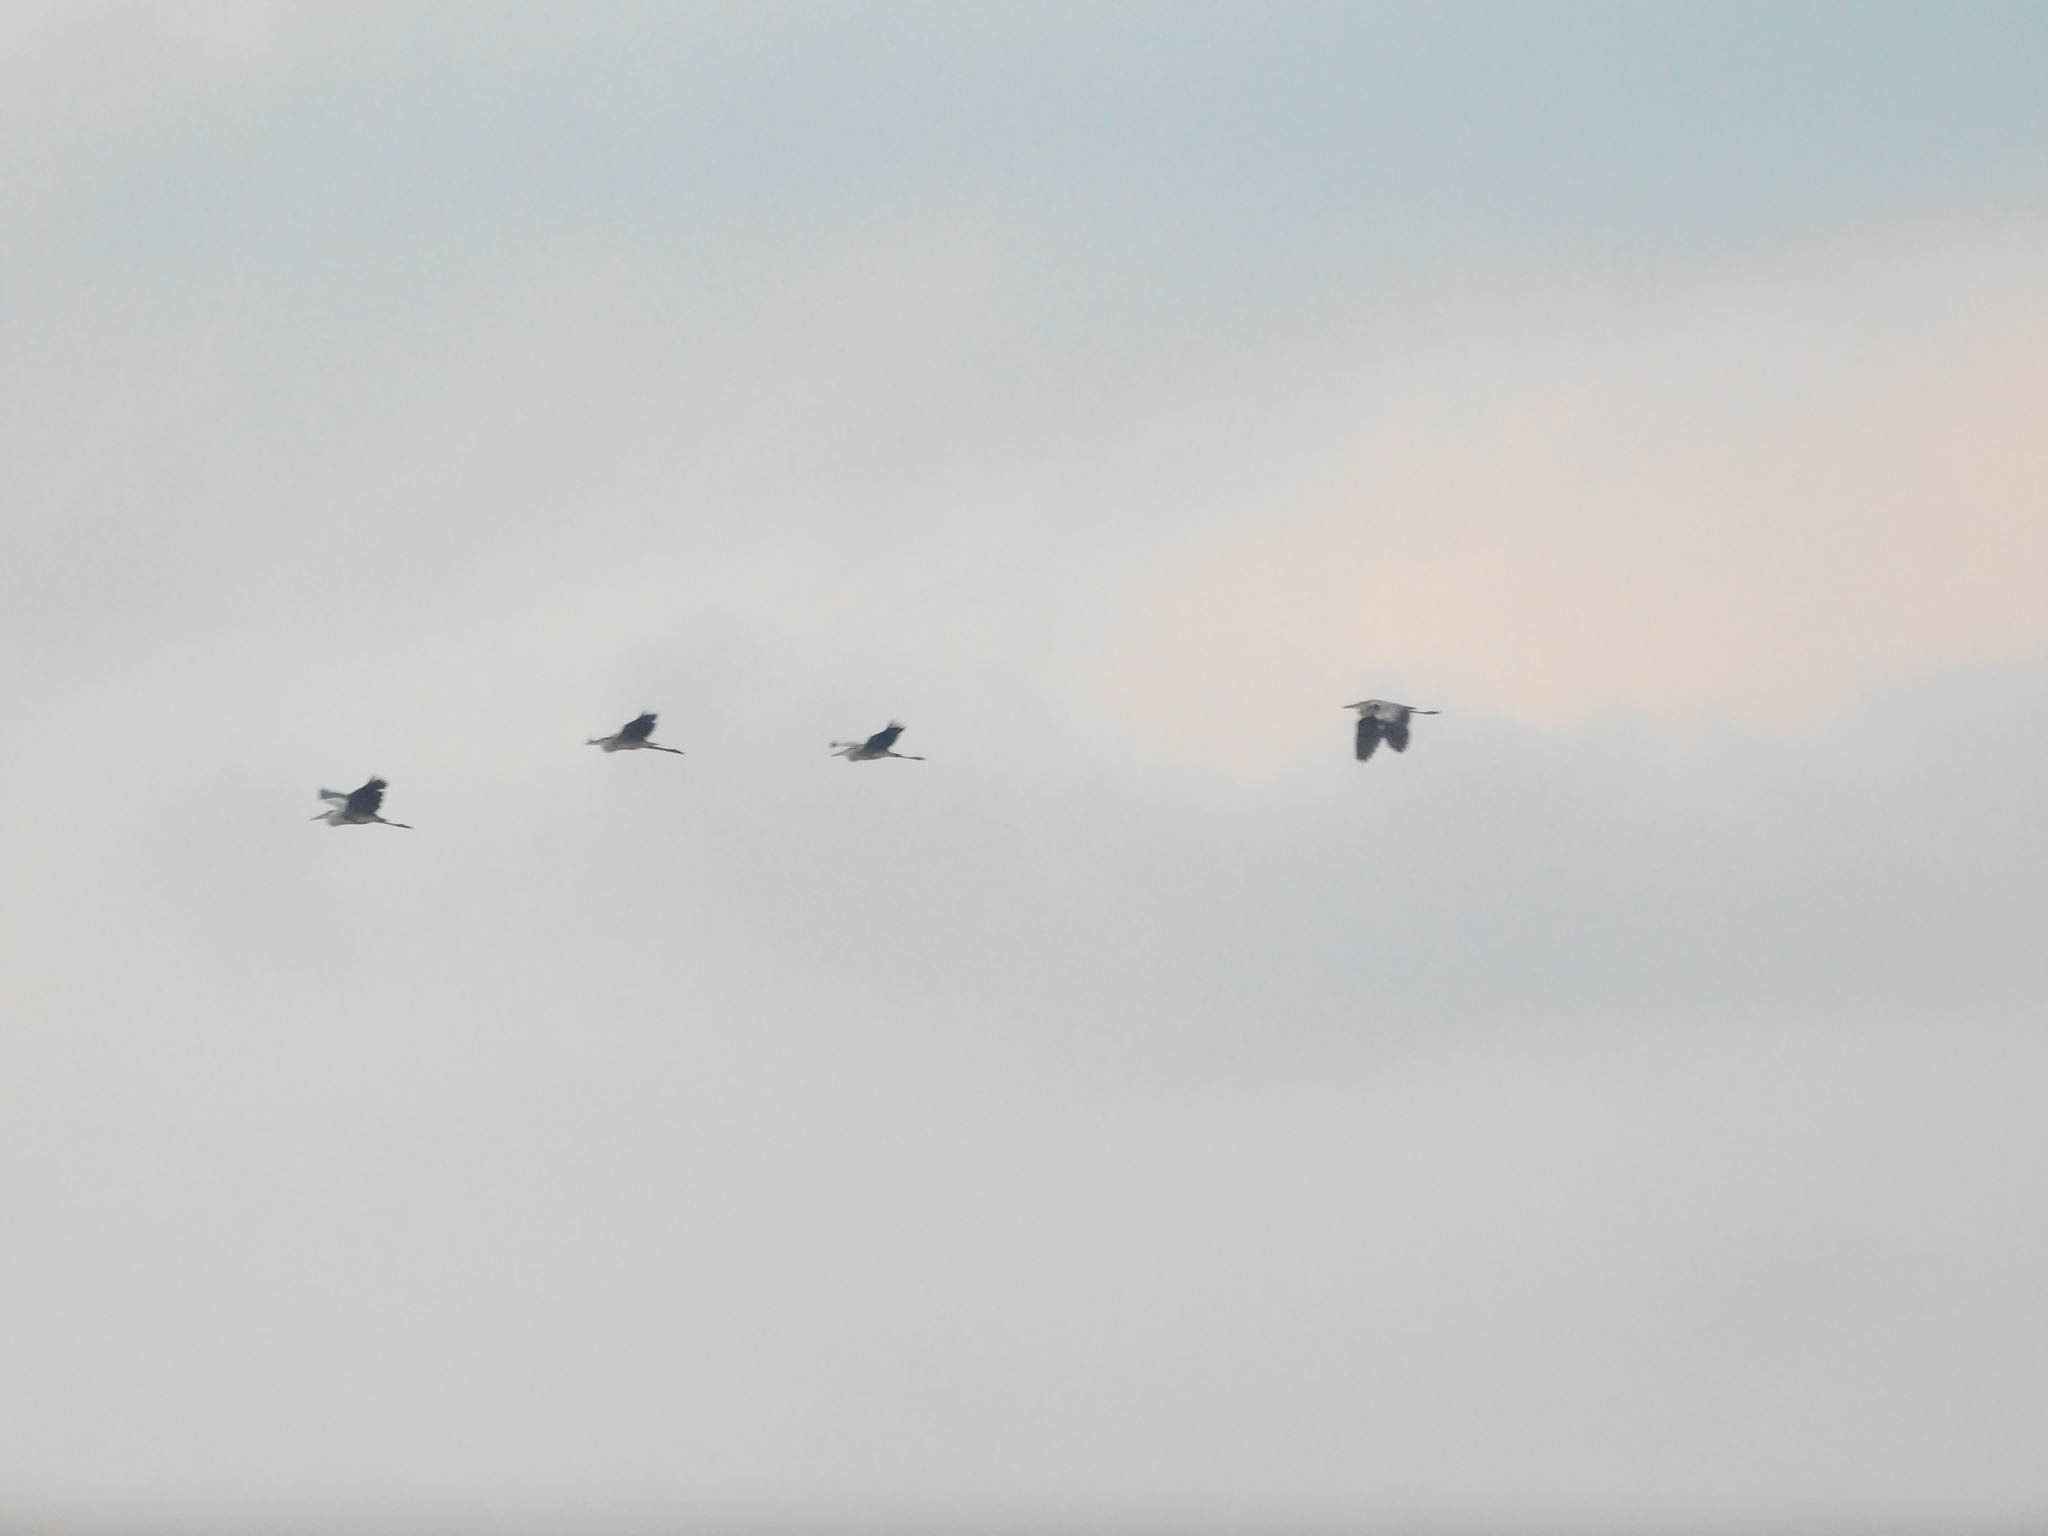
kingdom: Animalia
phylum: Chordata
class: Aves
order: Pelecaniformes
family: Ardeidae
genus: Ardea
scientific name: Ardea cinerea
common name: Grey heron
